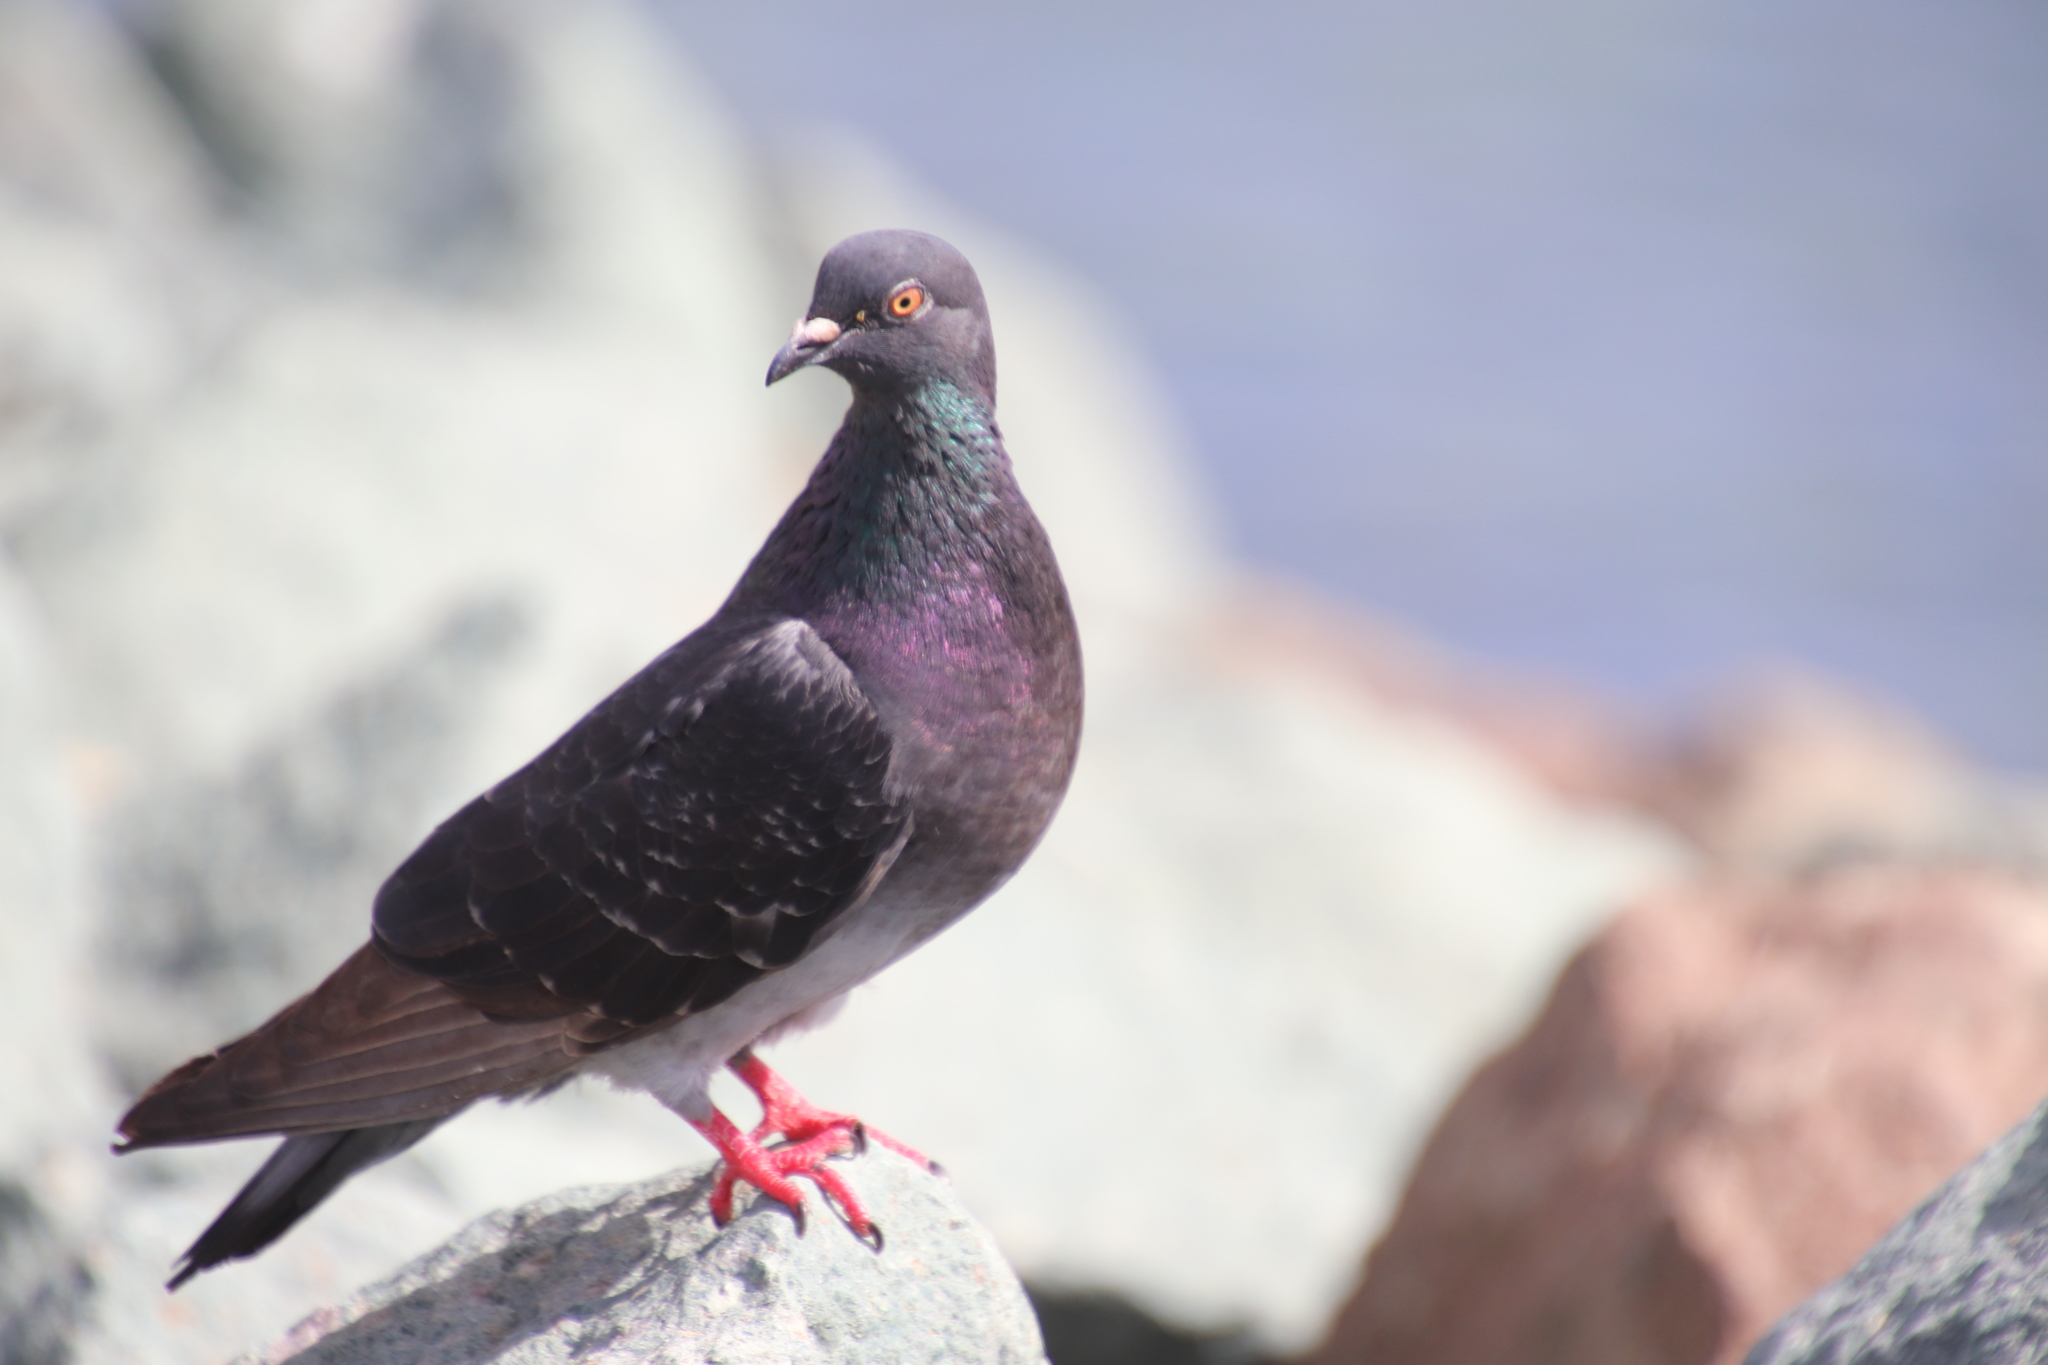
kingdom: Animalia
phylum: Chordata
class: Aves
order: Columbiformes
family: Columbidae
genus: Columba
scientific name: Columba livia
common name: Rock pigeon
